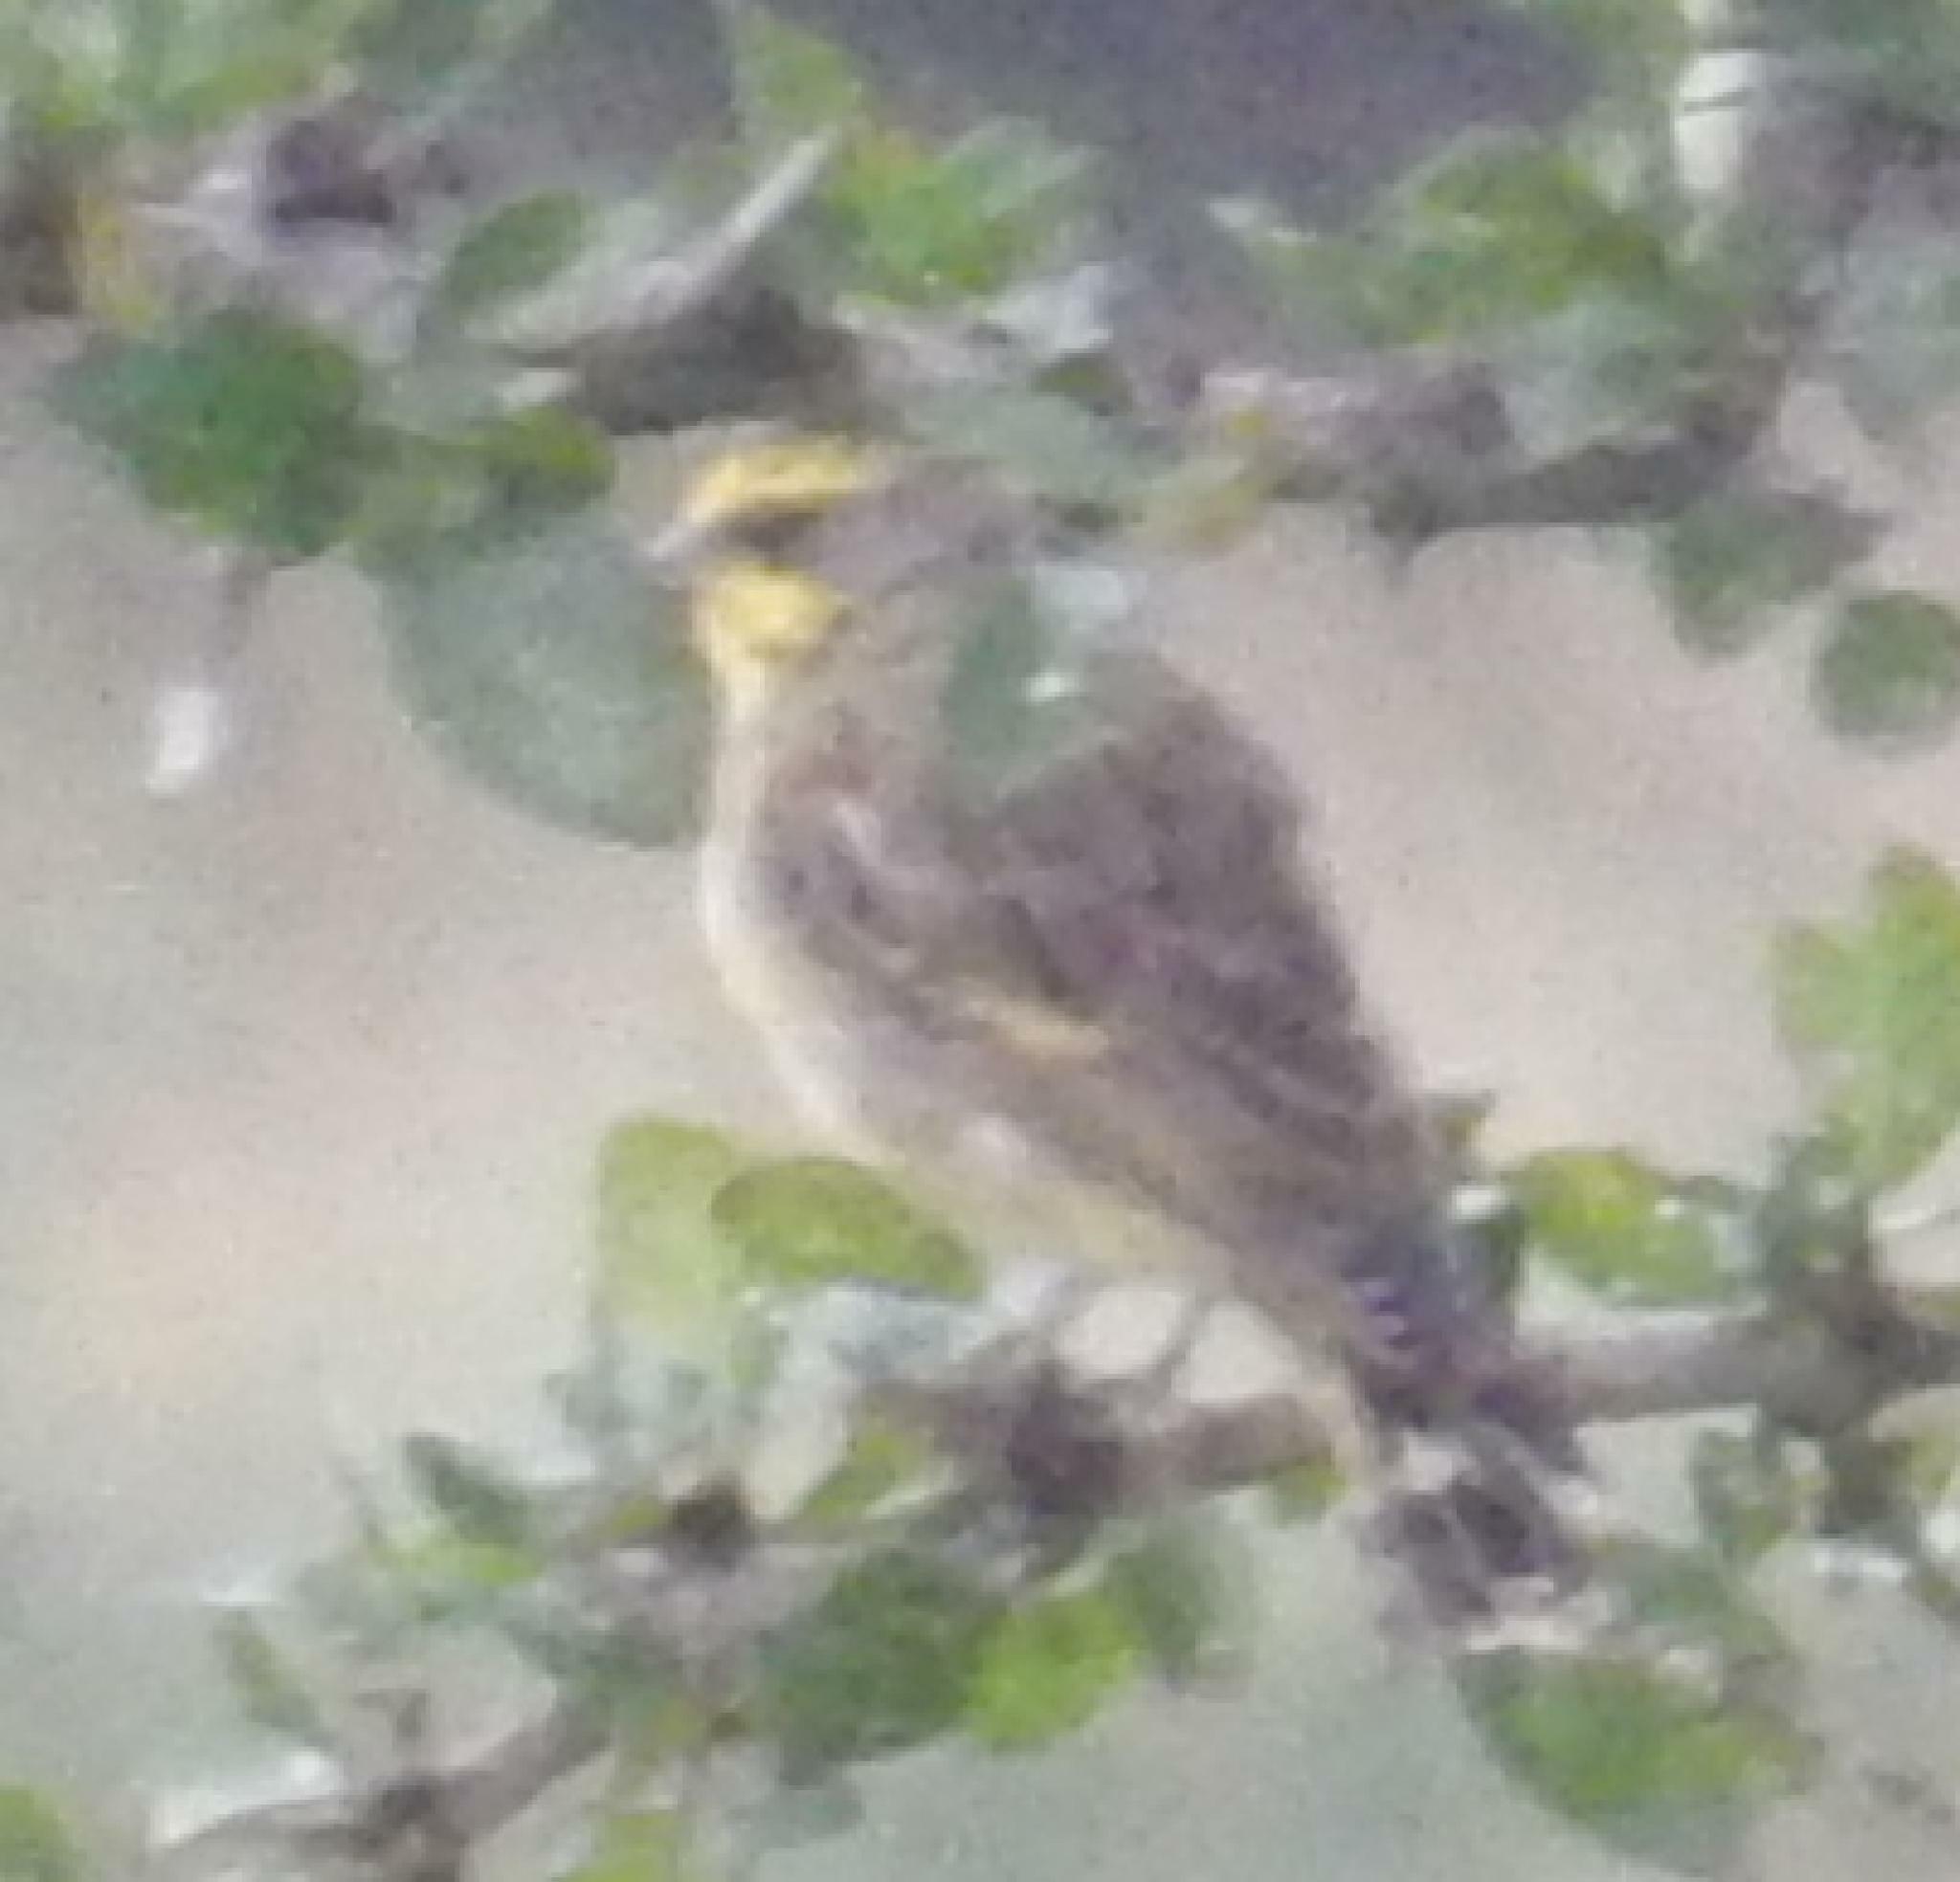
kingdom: Animalia
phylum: Chordata
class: Aves
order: Passeriformes
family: Fringillidae
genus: Crithagra
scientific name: Crithagra mozambica
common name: Yellow-fronted canary
